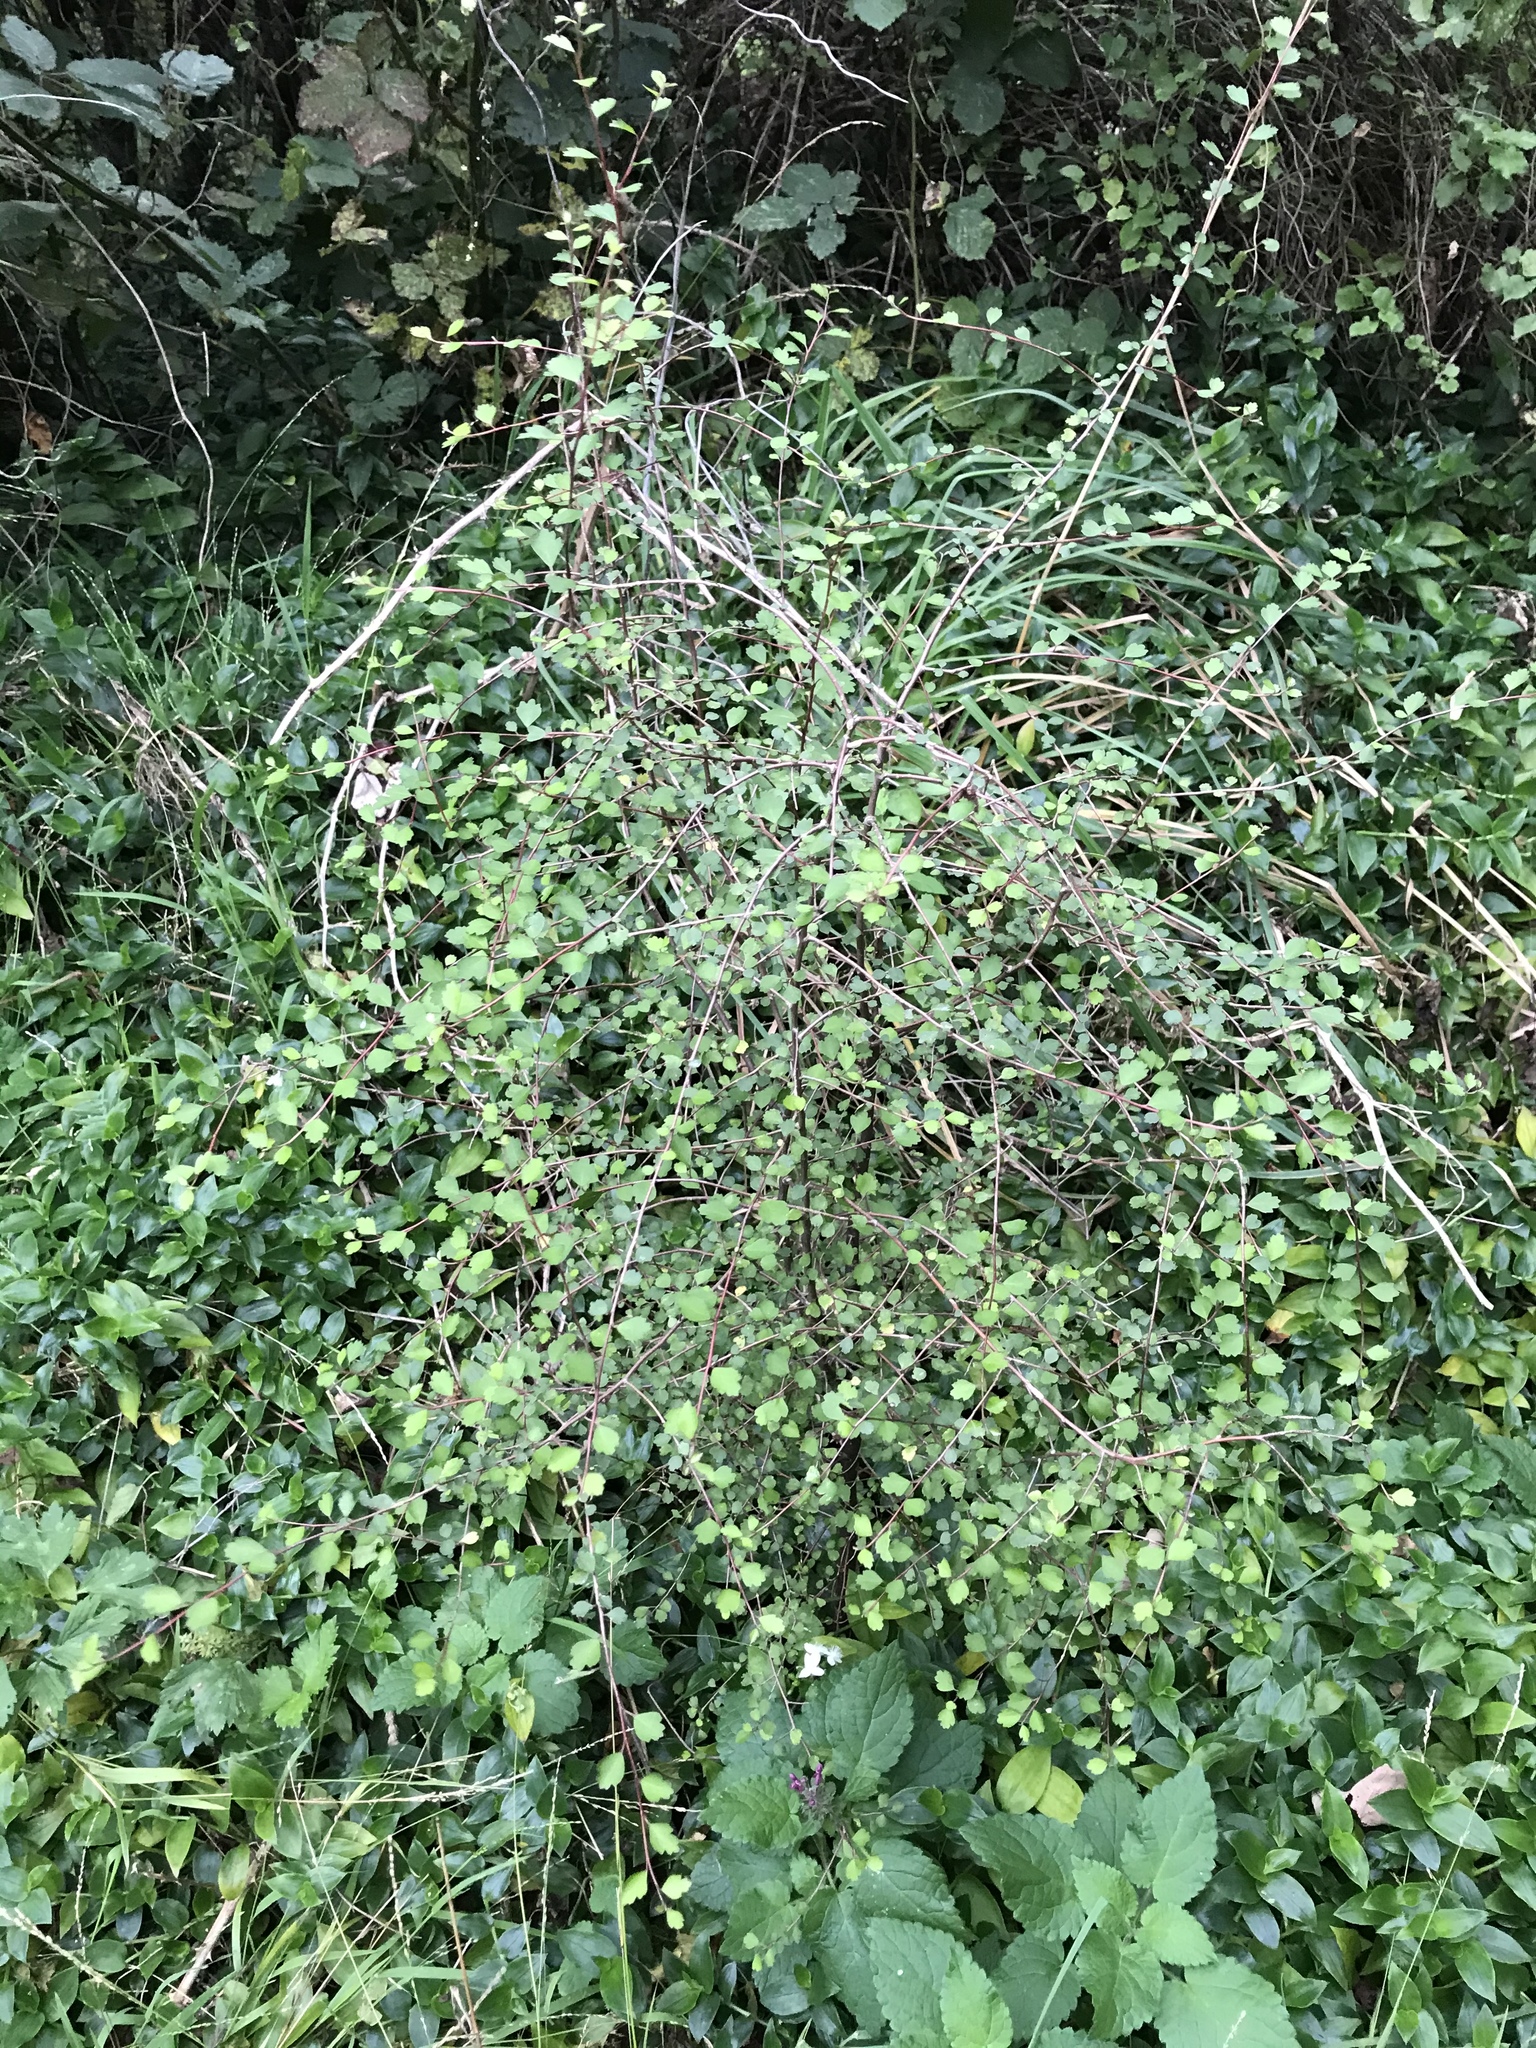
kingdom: Plantae
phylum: Tracheophyta
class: Magnoliopsida
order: Malvales
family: Malvaceae
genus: Hoheria
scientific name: Hoheria angustifolia
